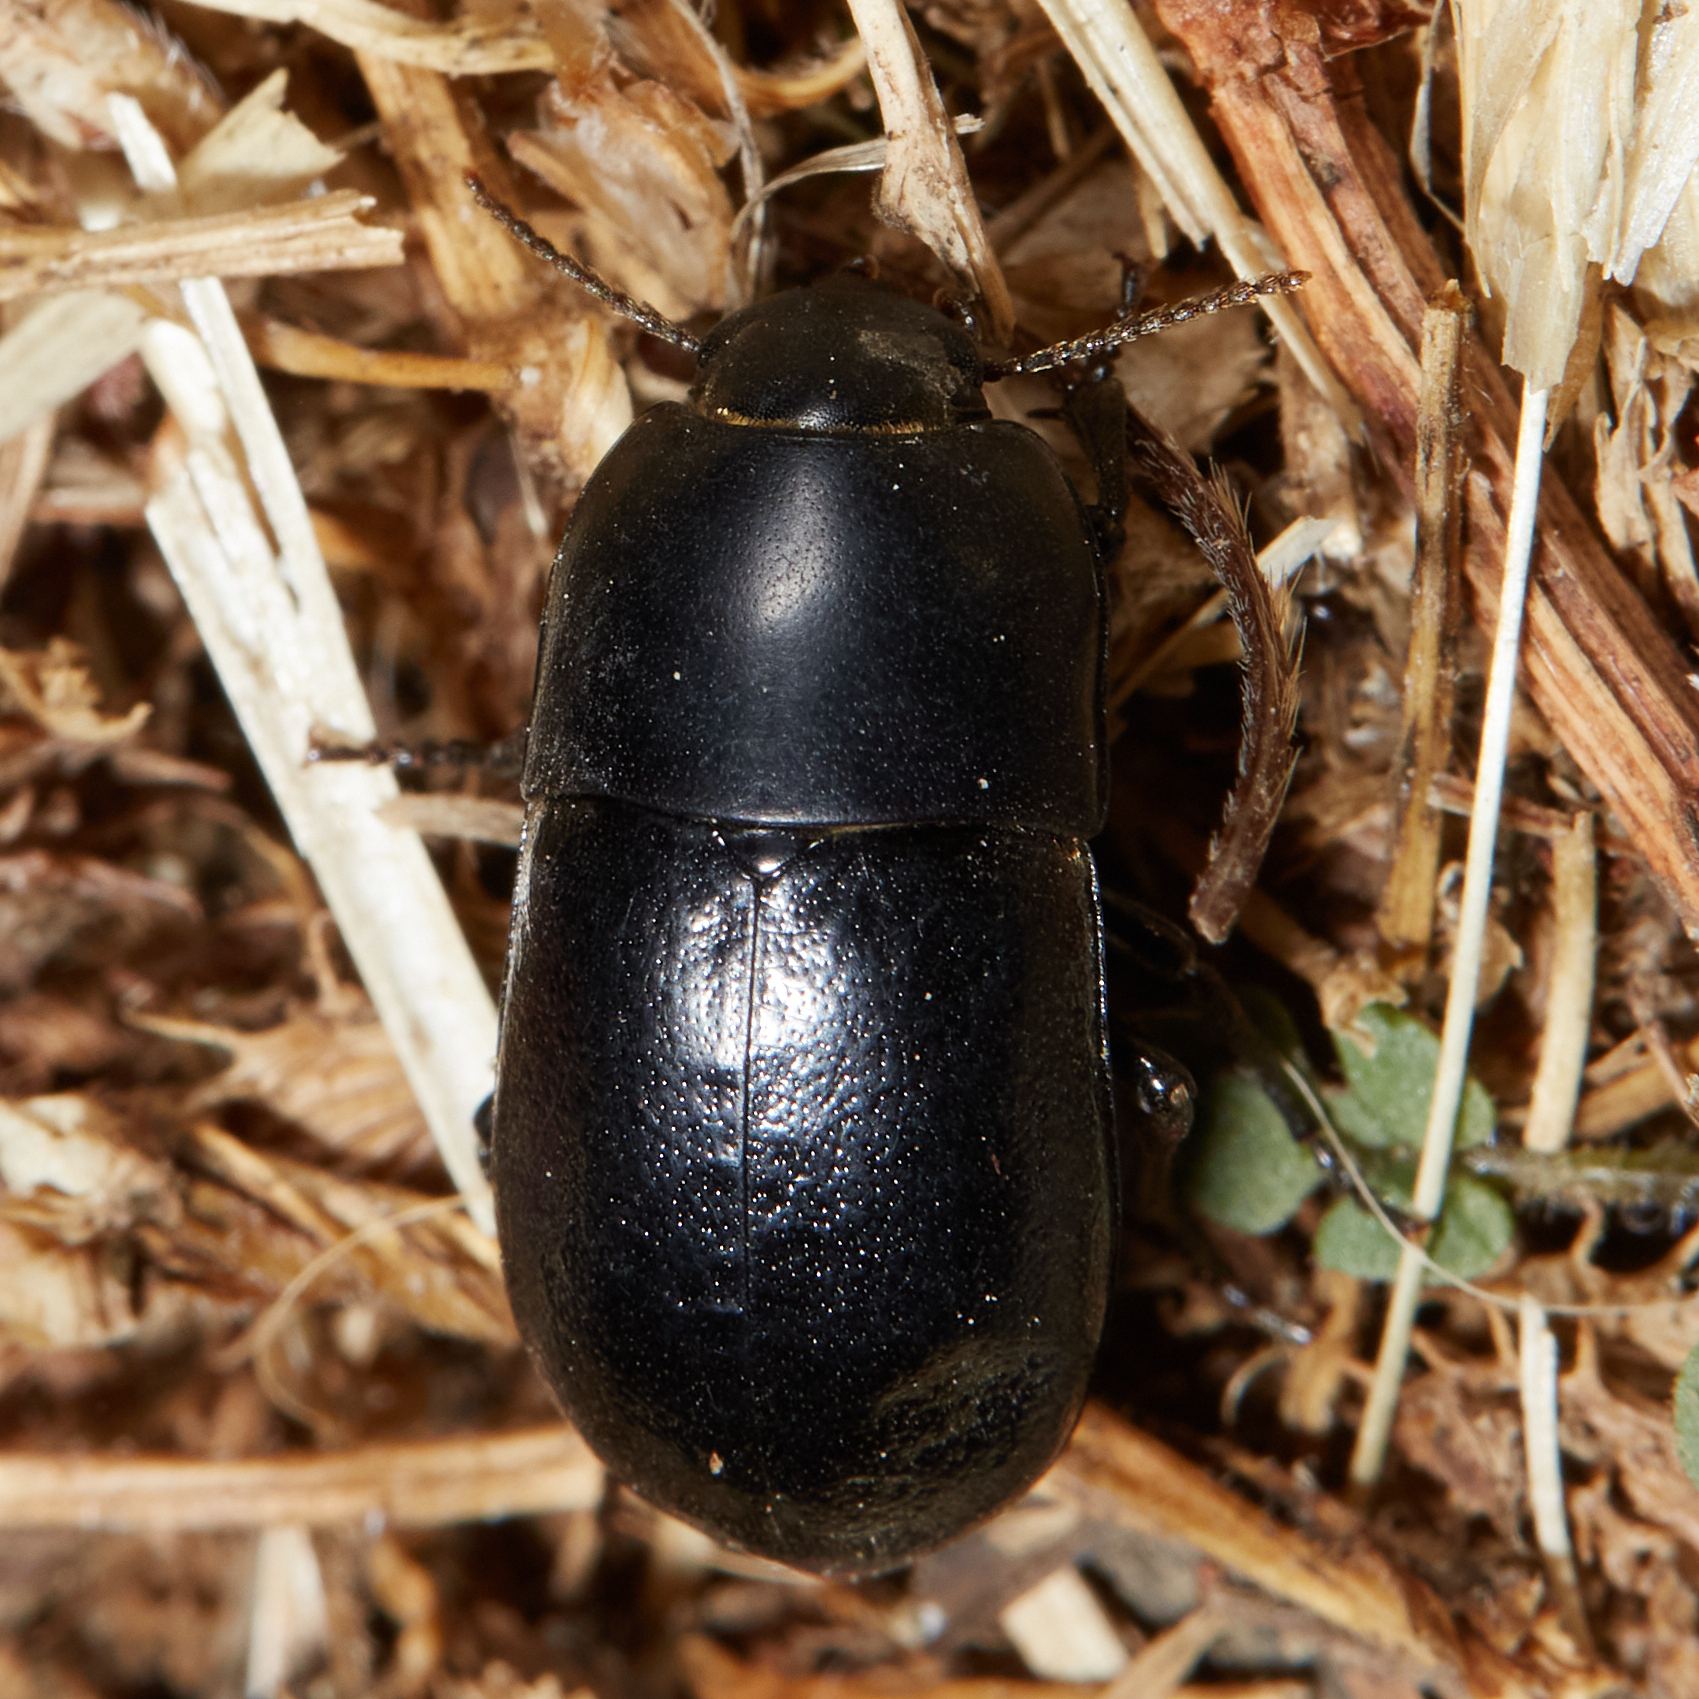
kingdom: Animalia
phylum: Arthropoda
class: Insecta
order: Coleoptera
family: Tenebrionidae
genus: Coniontis
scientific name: Coniontis
